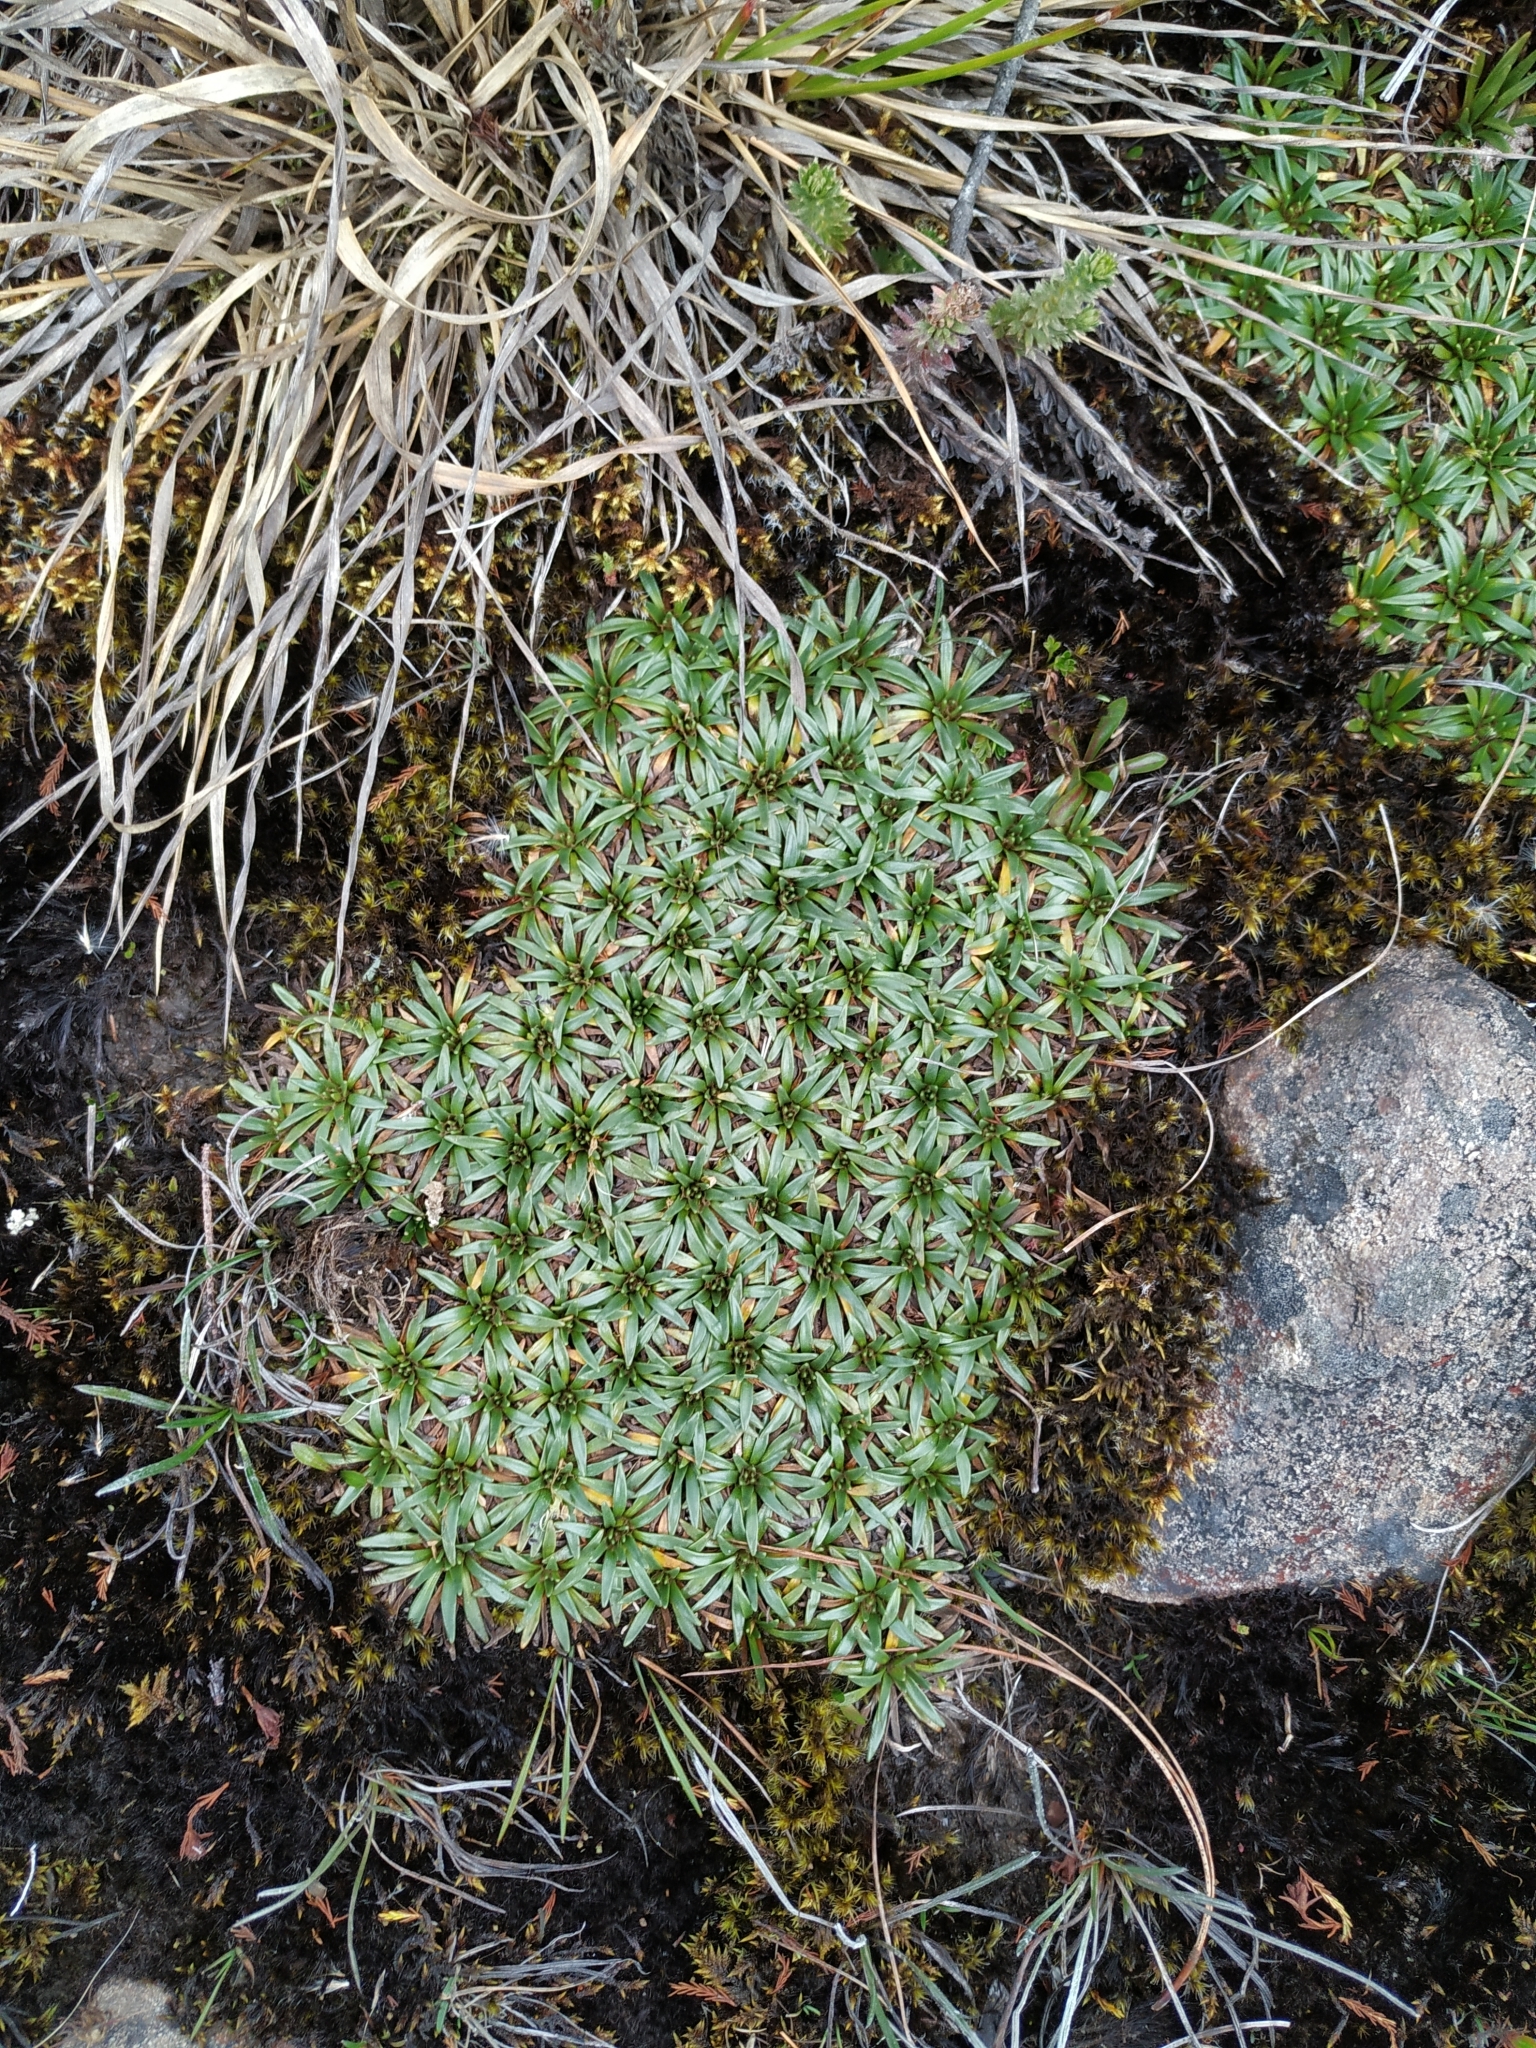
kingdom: Plantae
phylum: Tracheophyta
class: Magnoliopsida
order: Lamiales
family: Plantaginaceae
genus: Plantago
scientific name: Plantago rigida
